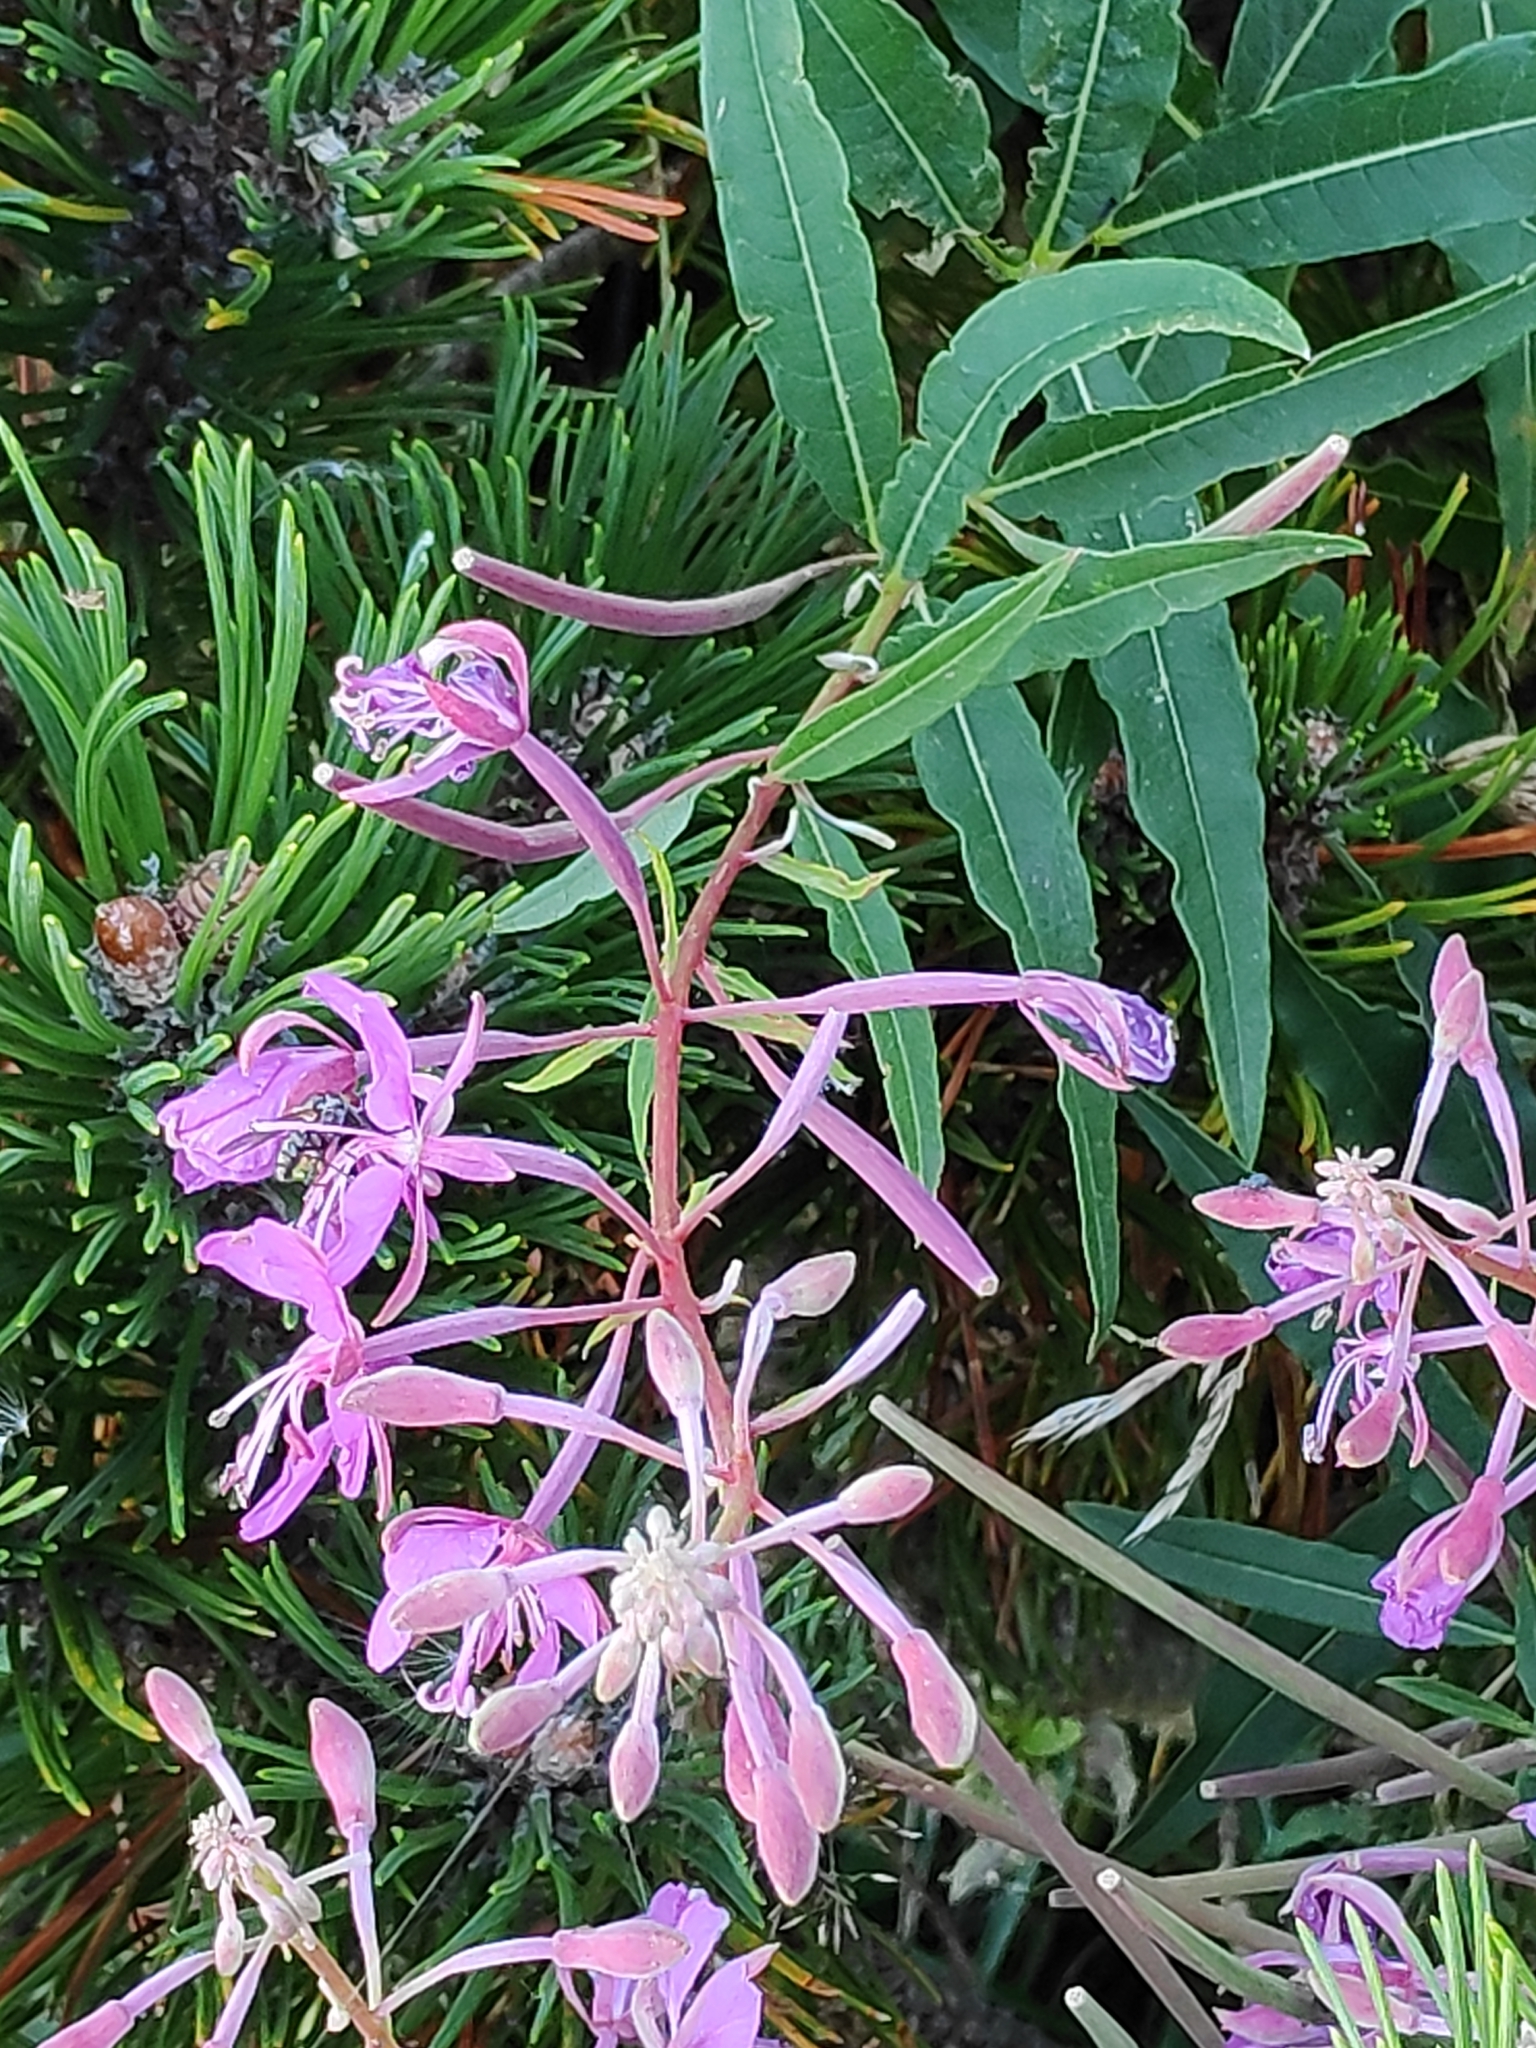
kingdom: Plantae
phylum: Tracheophyta
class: Magnoliopsida
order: Myrtales
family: Onagraceae
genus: Chamaenerion
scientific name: Chamaenerion angustifolium
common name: Fireweed
